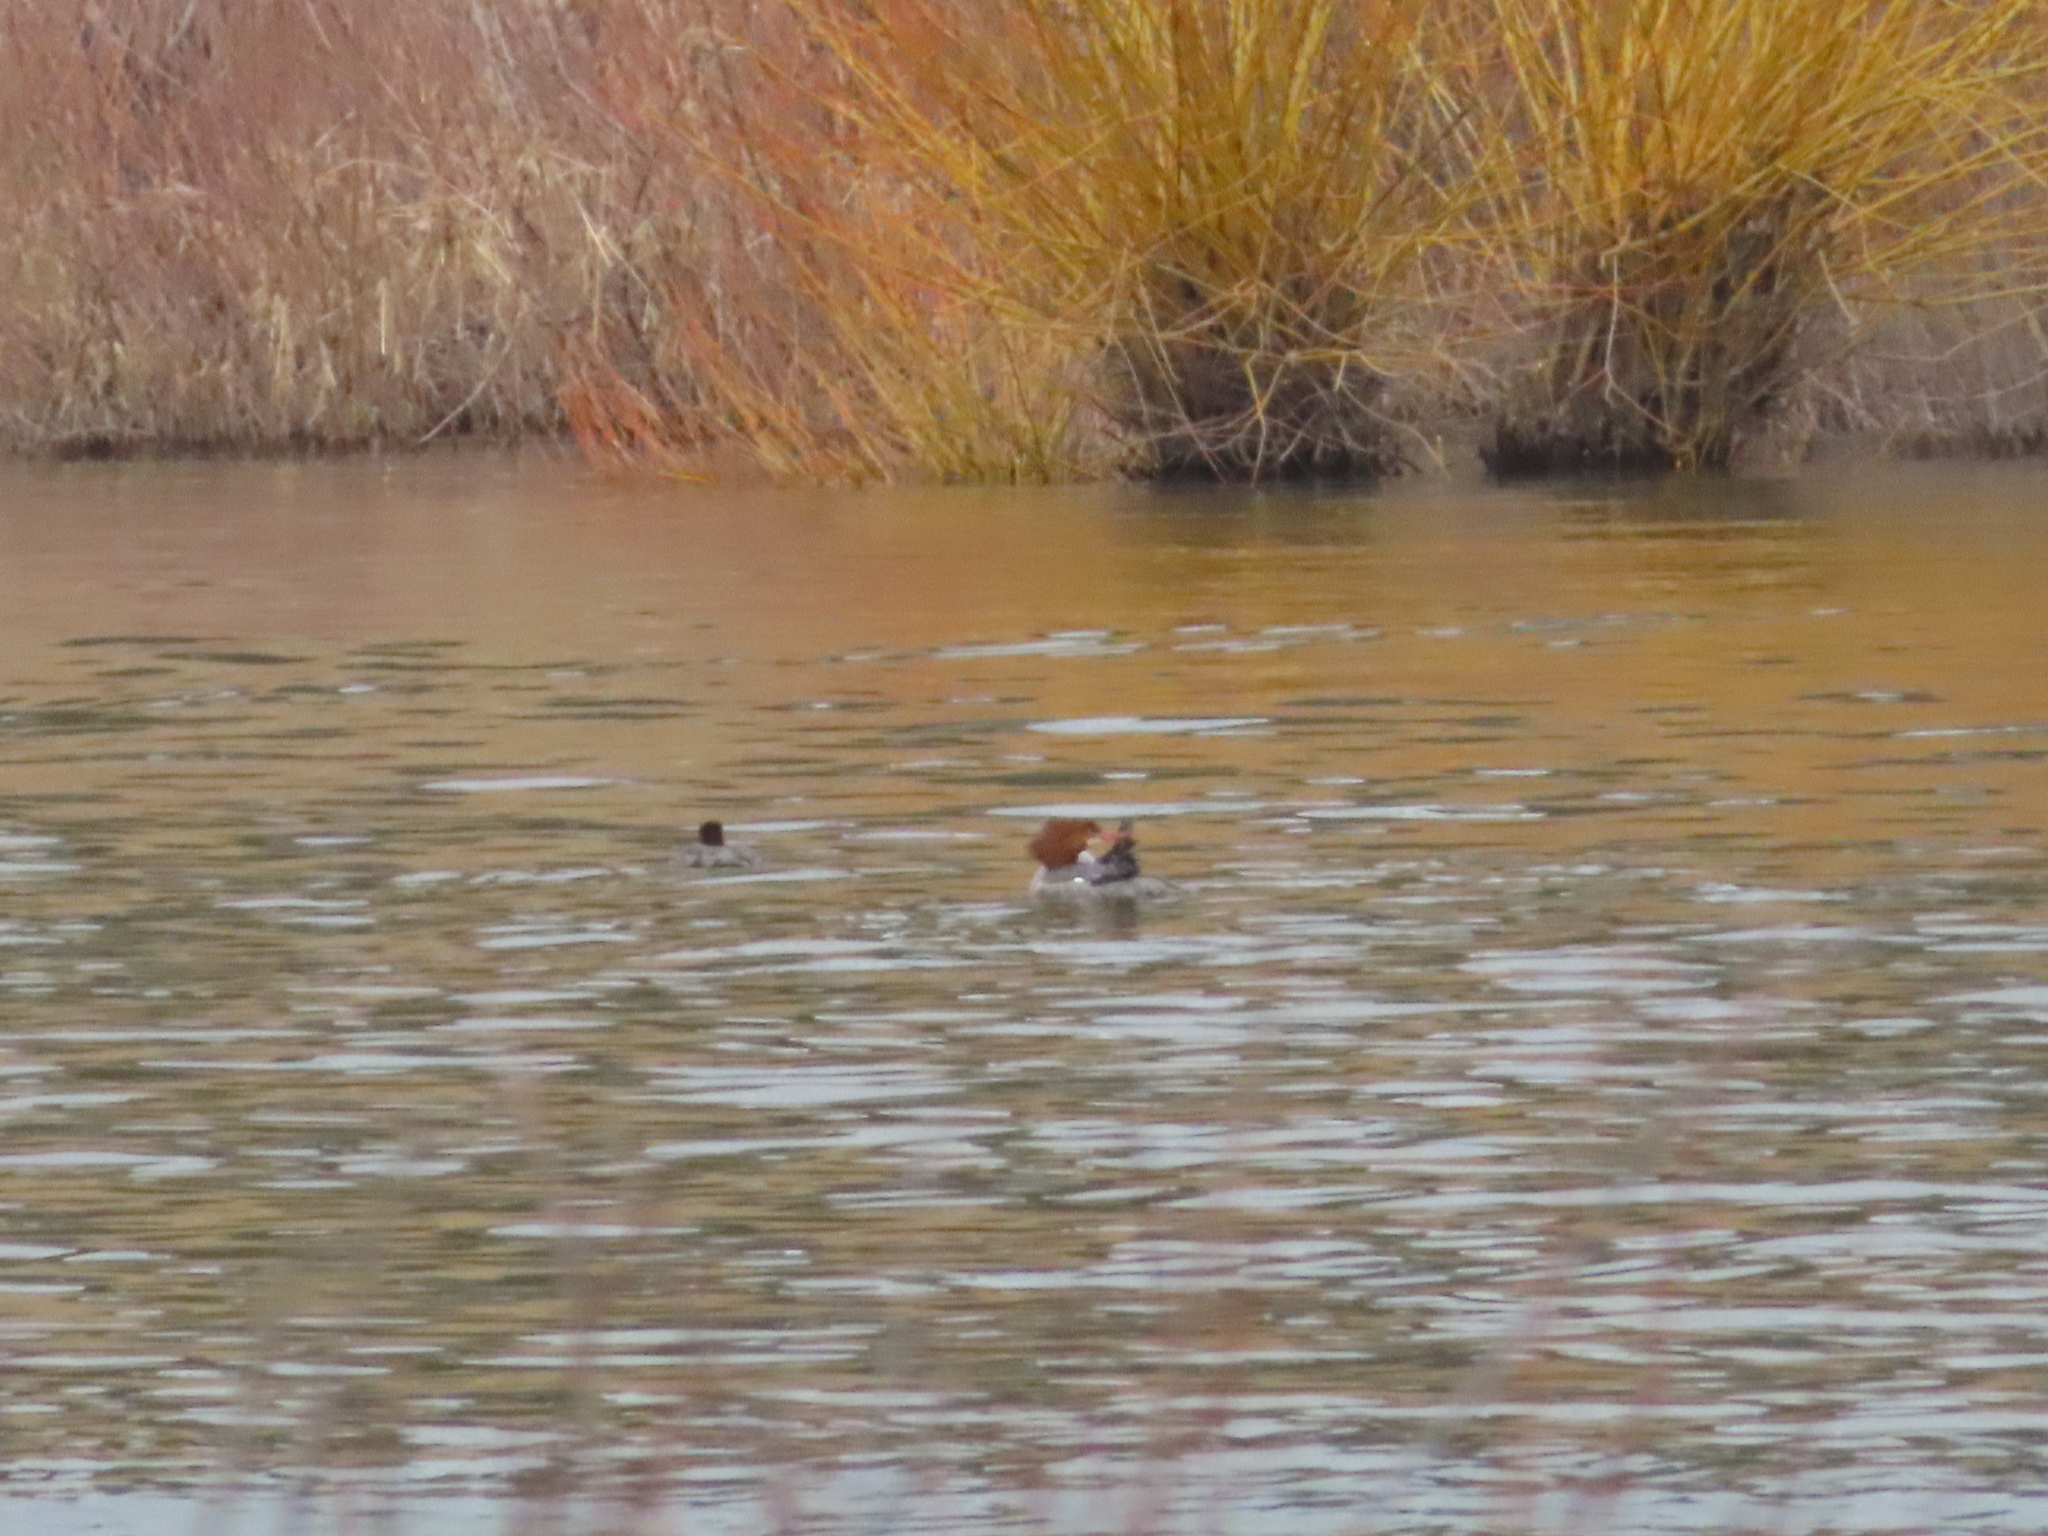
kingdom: Animalia
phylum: Chordata
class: Aves
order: Anseriformes
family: Anatidae
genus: Mergus
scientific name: Mergus merganser
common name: Common merganser
